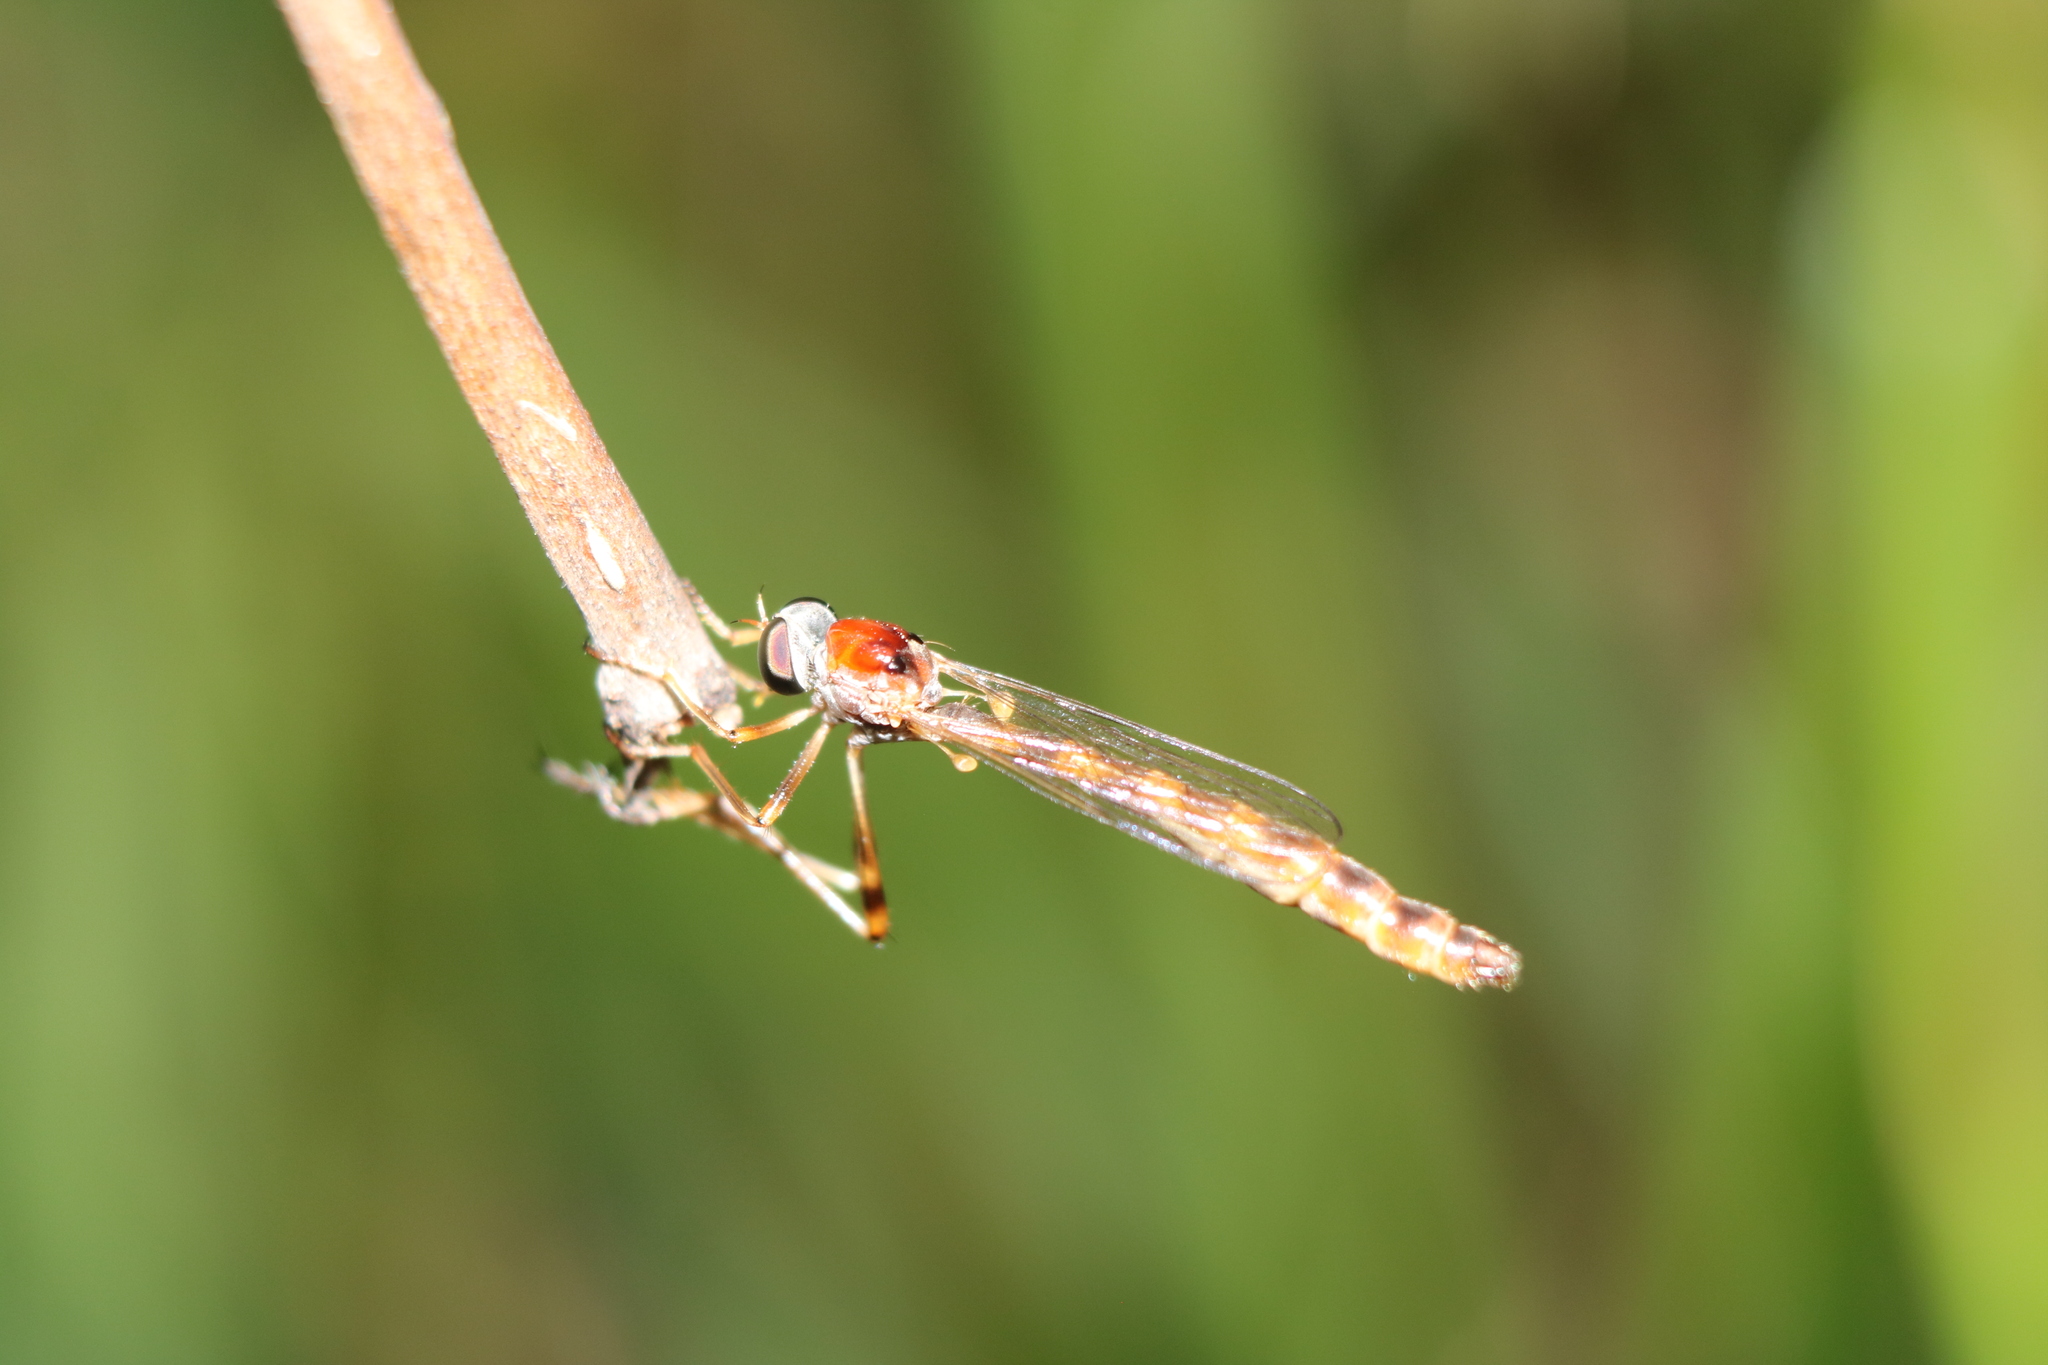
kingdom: Animalia
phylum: Arthropoda
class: Insecta
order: Diptera
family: Asilidae
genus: Tipulogaster
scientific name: Tipulogaster glabrata
